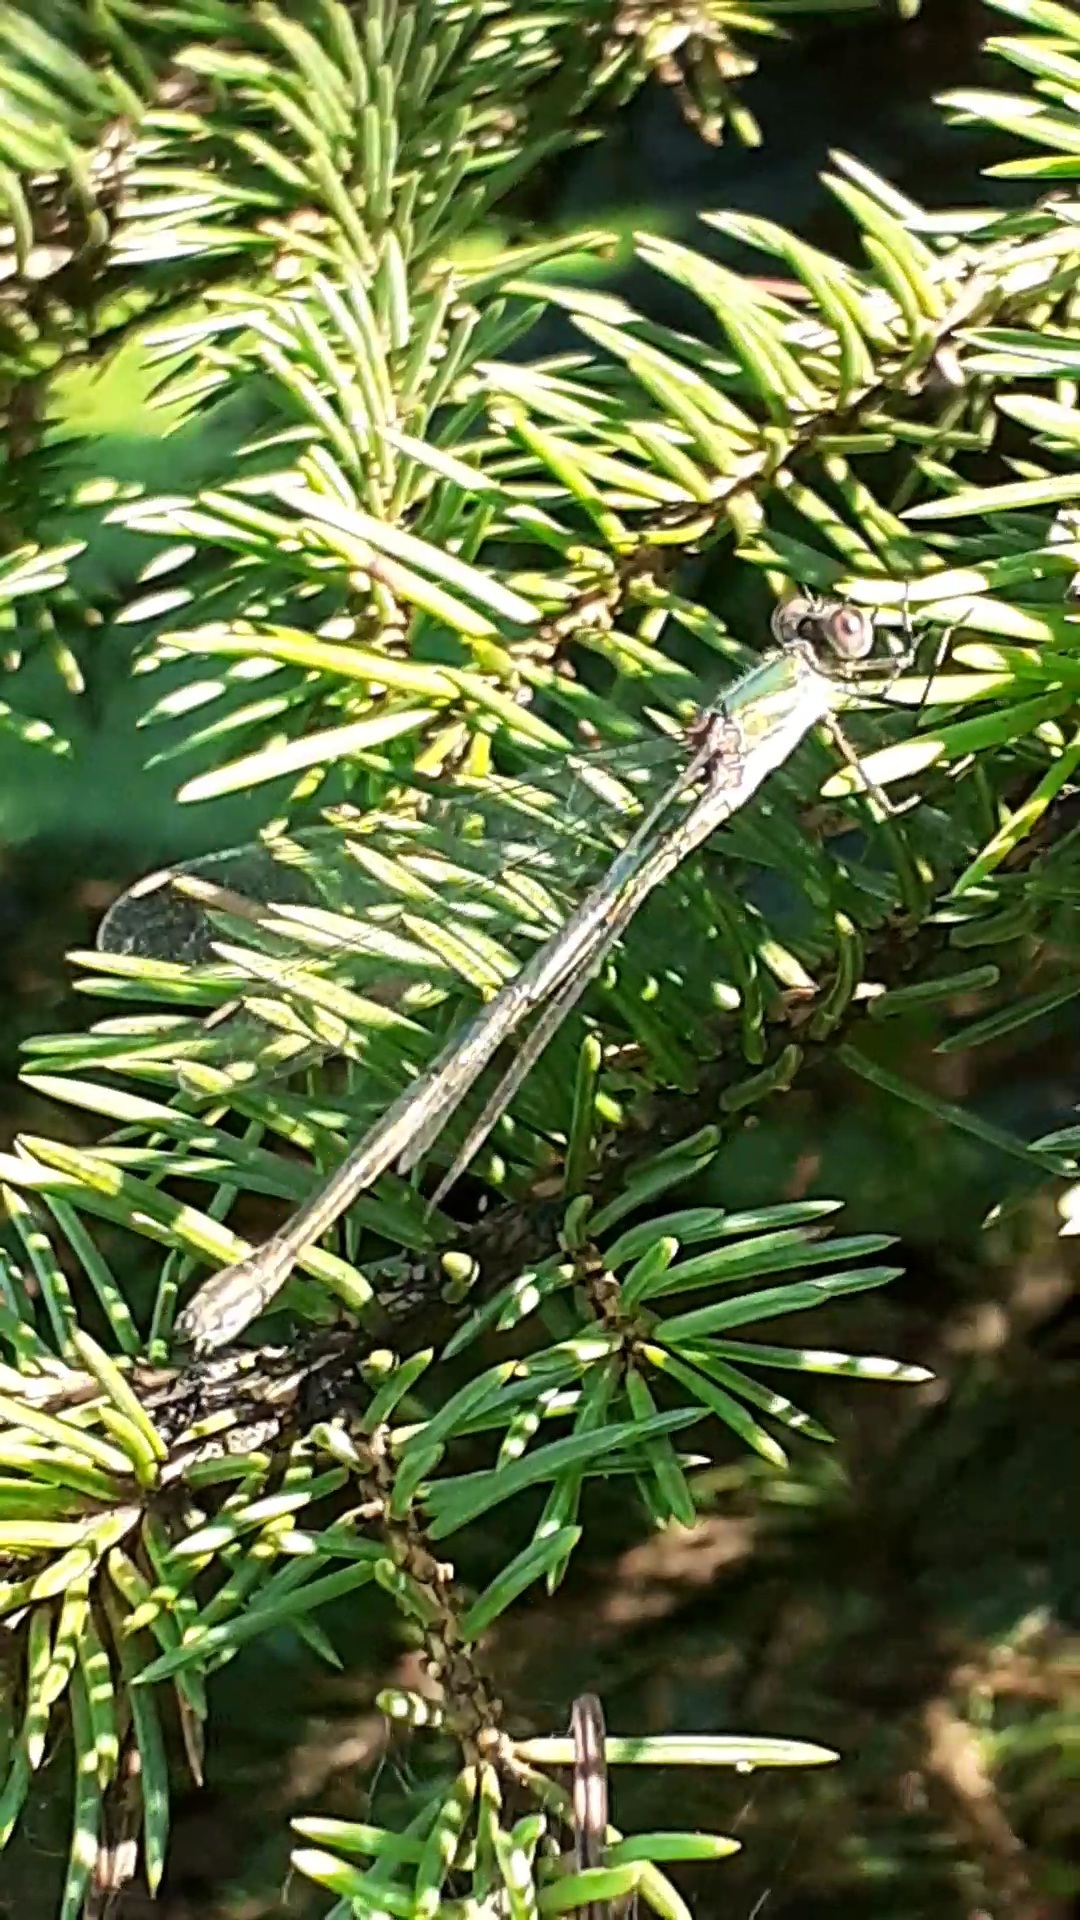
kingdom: Animalia
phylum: Arthropoda
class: Insecta
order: Odonata
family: Lestidae
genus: Chalcolestes
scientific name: Chalcolestes viridis
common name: Green emerald damselfly
